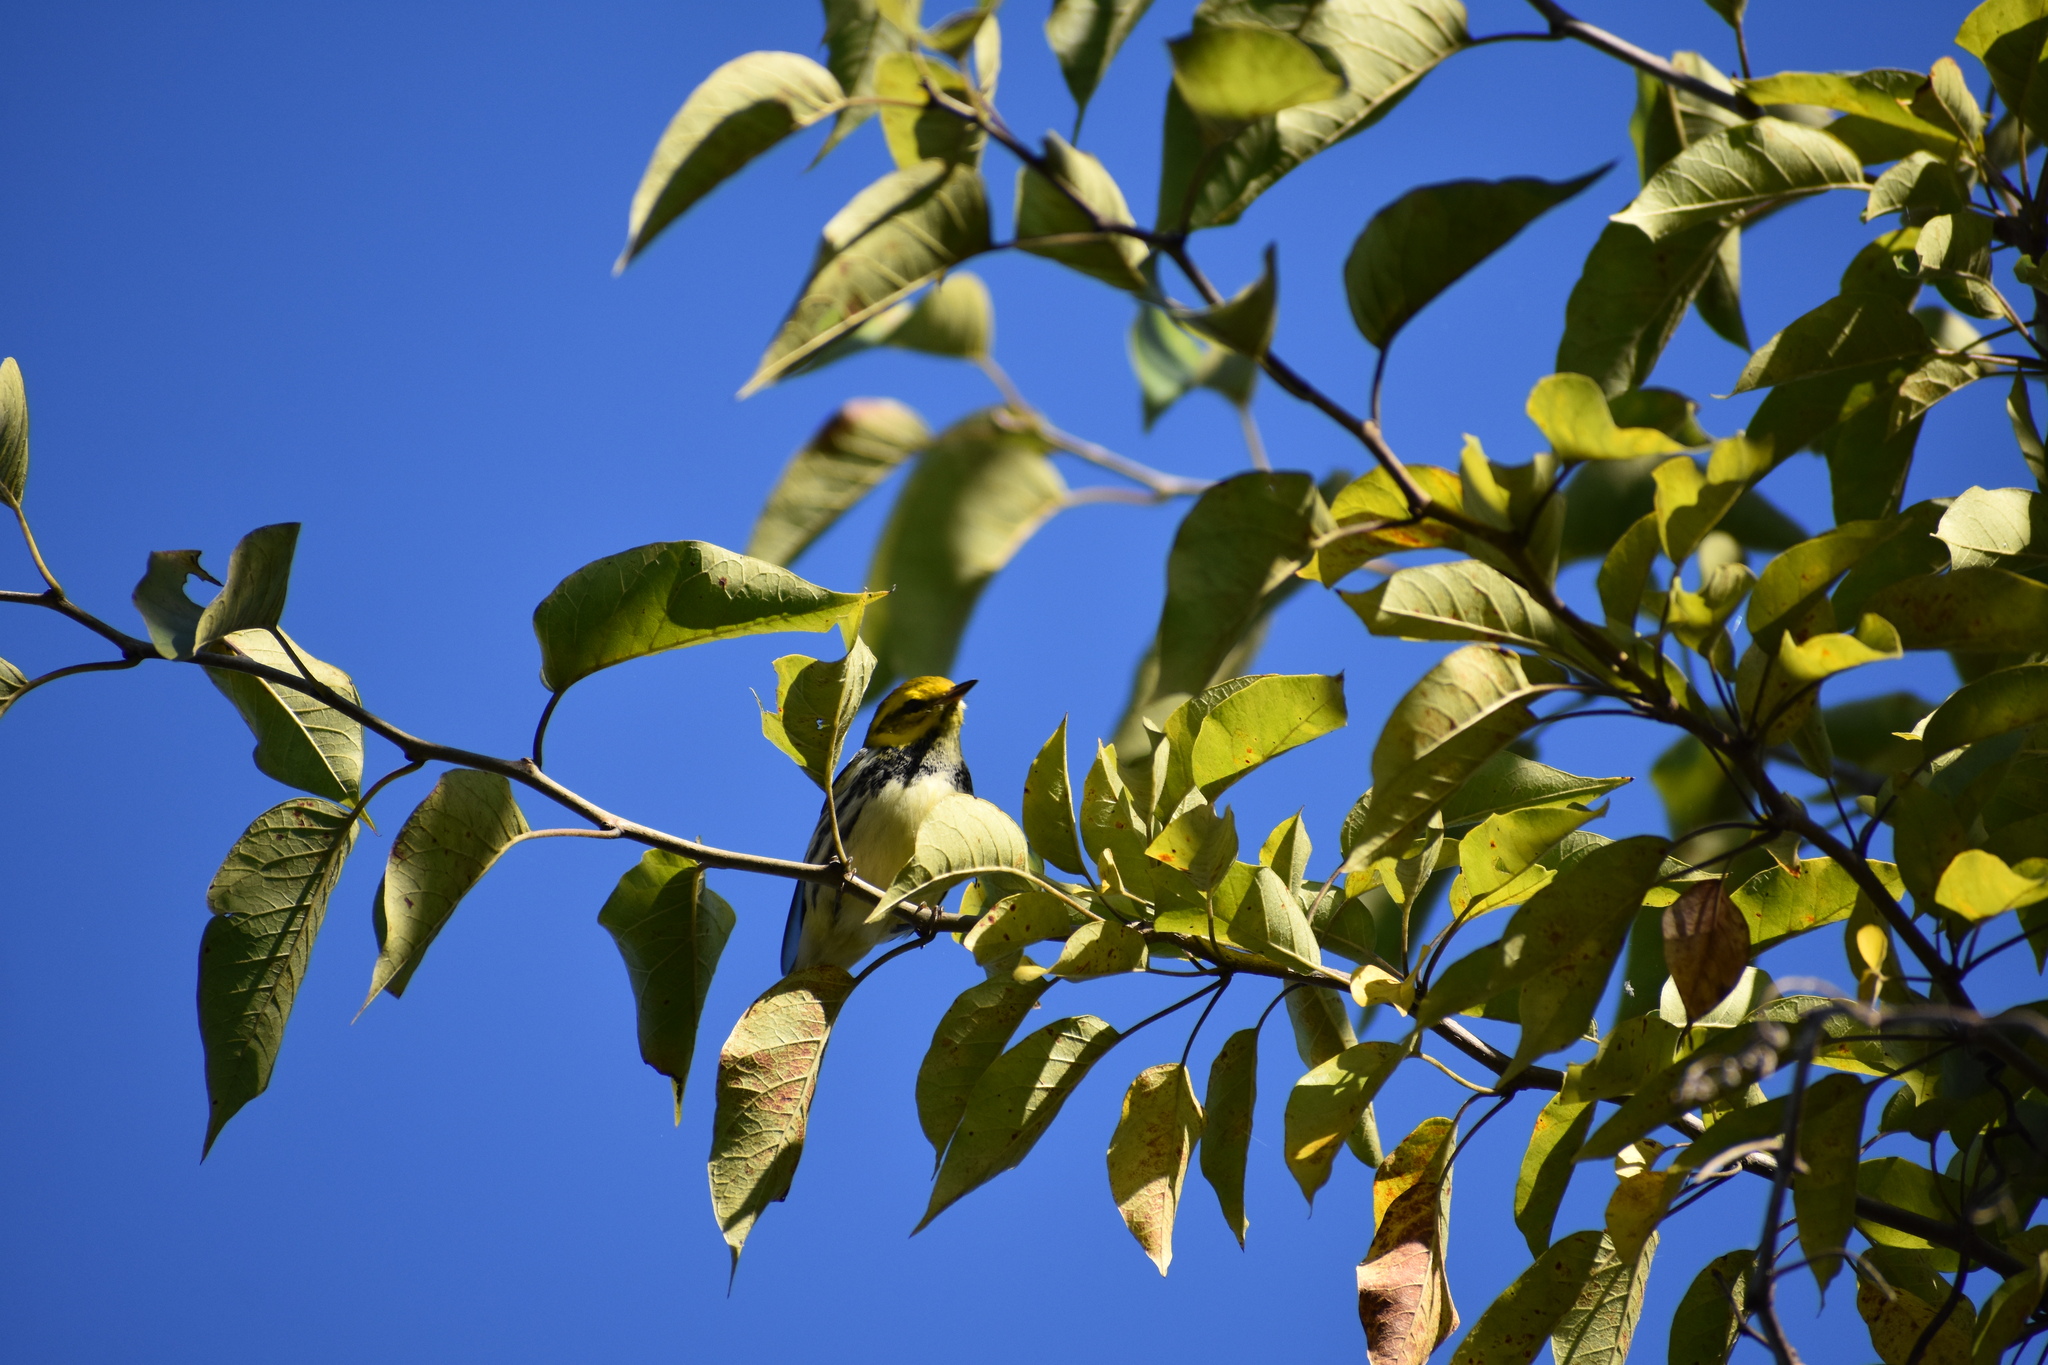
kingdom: Animalia
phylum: Chordata
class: Aves
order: Passeriformes
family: Parulidae
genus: Setophaga
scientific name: Setophaga virens
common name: Black-throated green warbler
